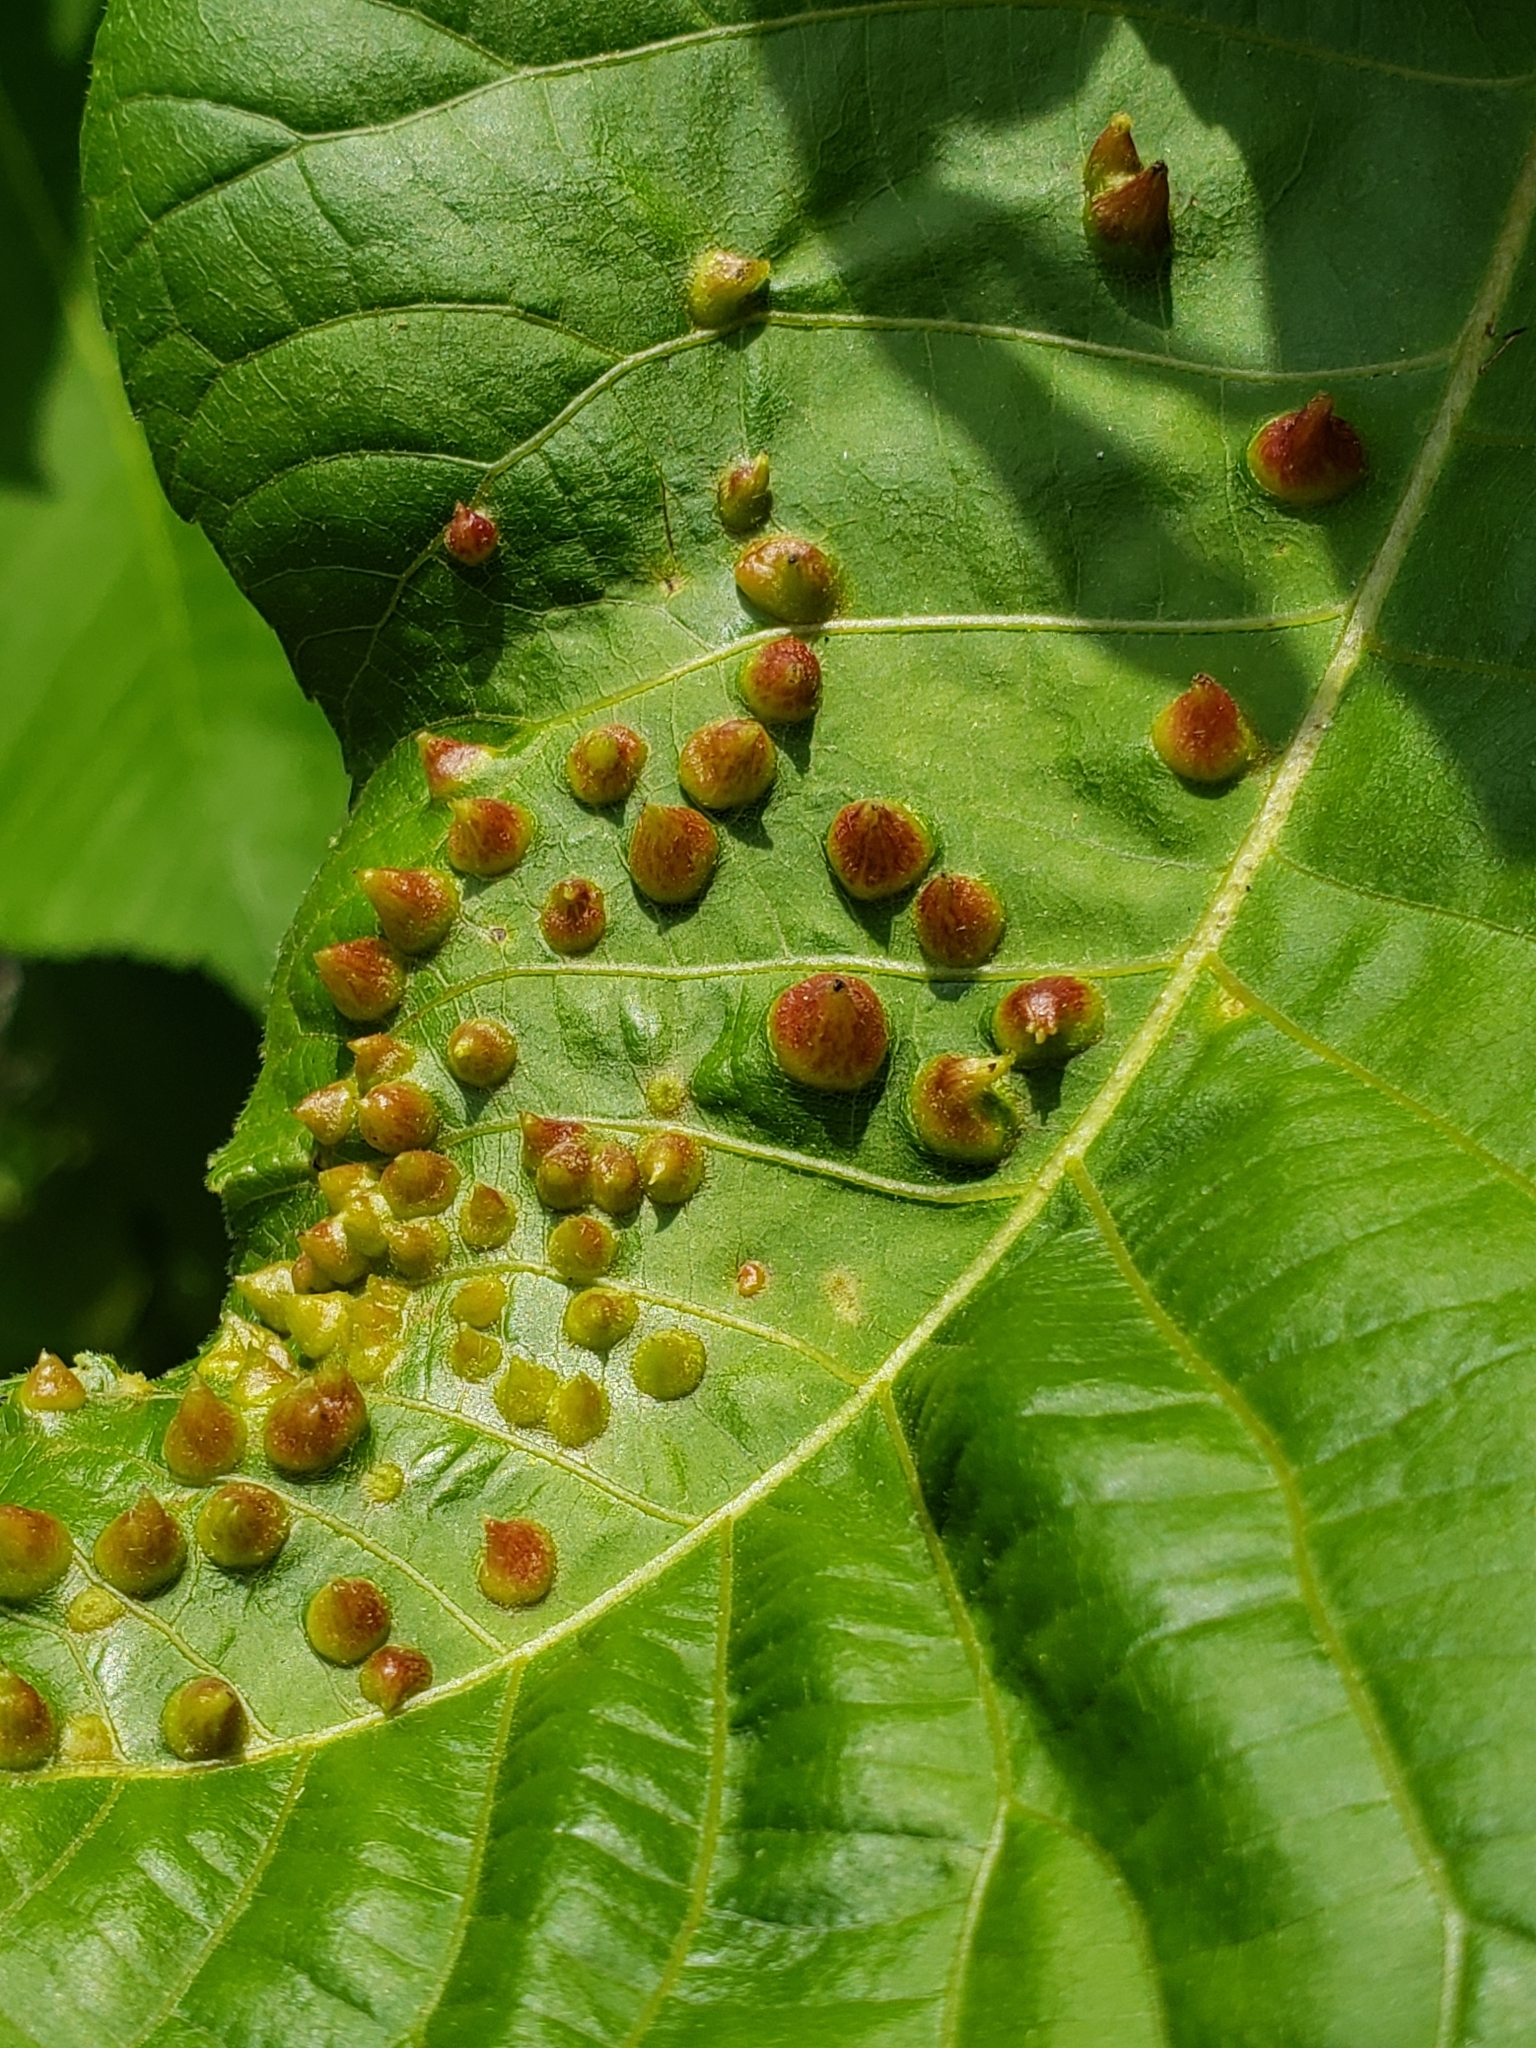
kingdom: Animalia
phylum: Arthropoda
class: Insecta
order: Hemiptera
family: Phylloxeridae
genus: Phylloxera
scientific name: Phylloxera caryaefallax
